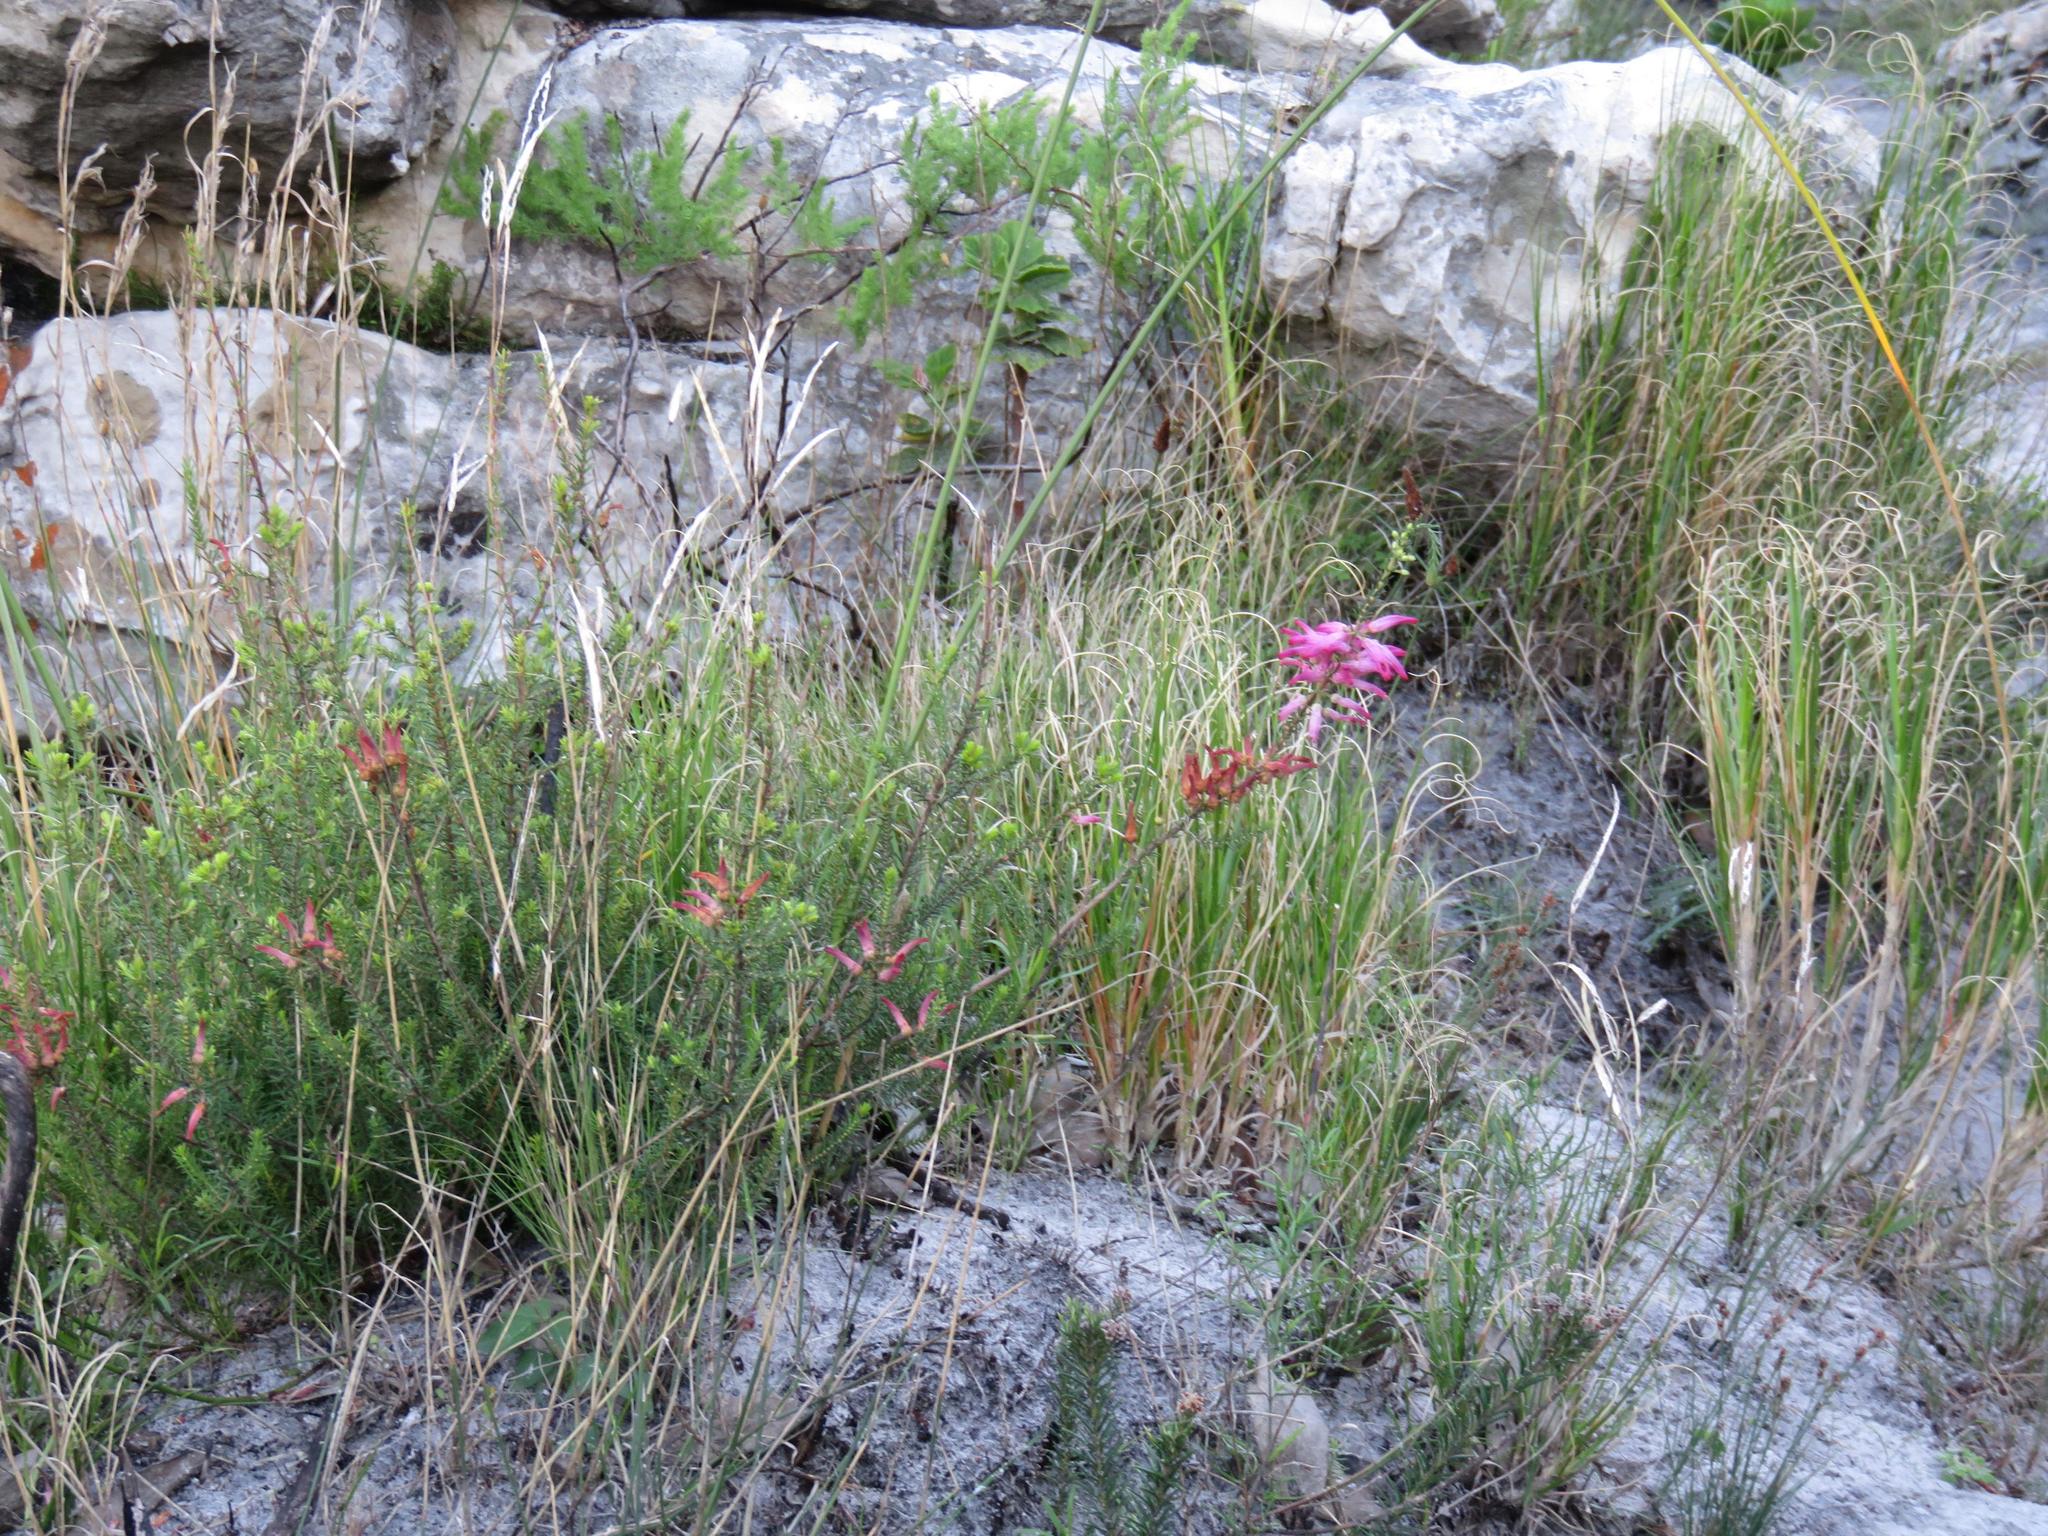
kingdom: Plantae
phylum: Tracheophyta
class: Magnoliopsida
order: Ericales
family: Ericaceae
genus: Erica
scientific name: Erica mammosa
